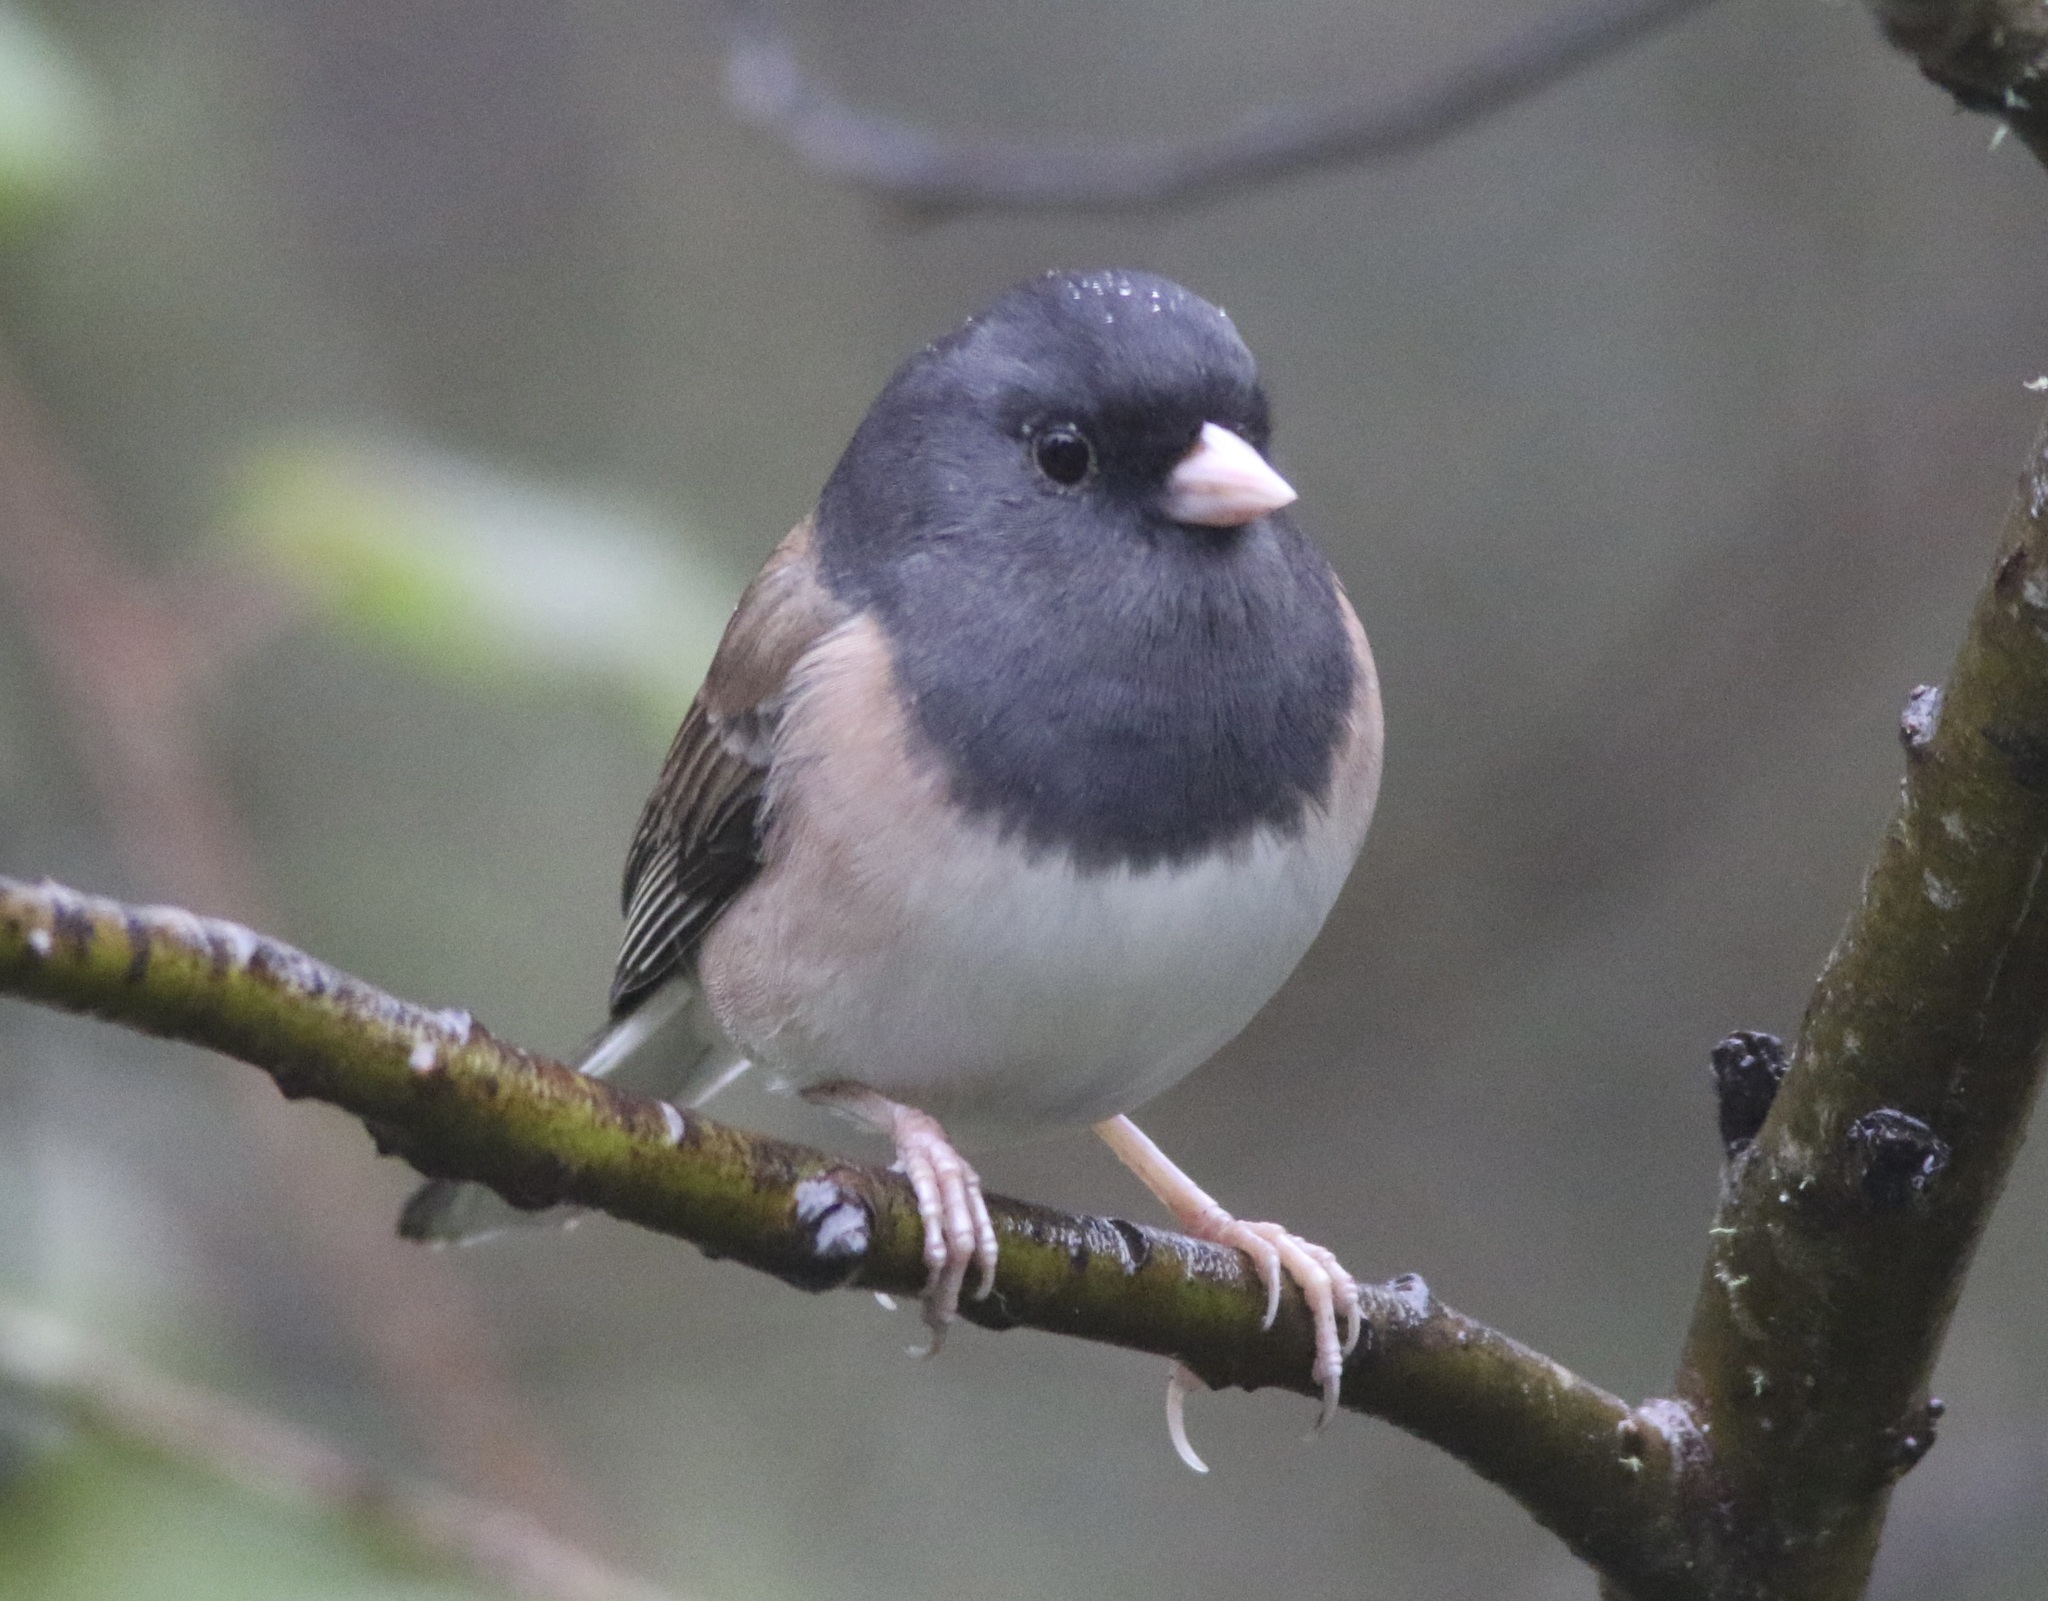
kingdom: Animalia
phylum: Chordata
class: Aves
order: Passeriformes
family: Passerellidae
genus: Junco
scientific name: Junco hyemalis
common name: Dark-eyed junco
